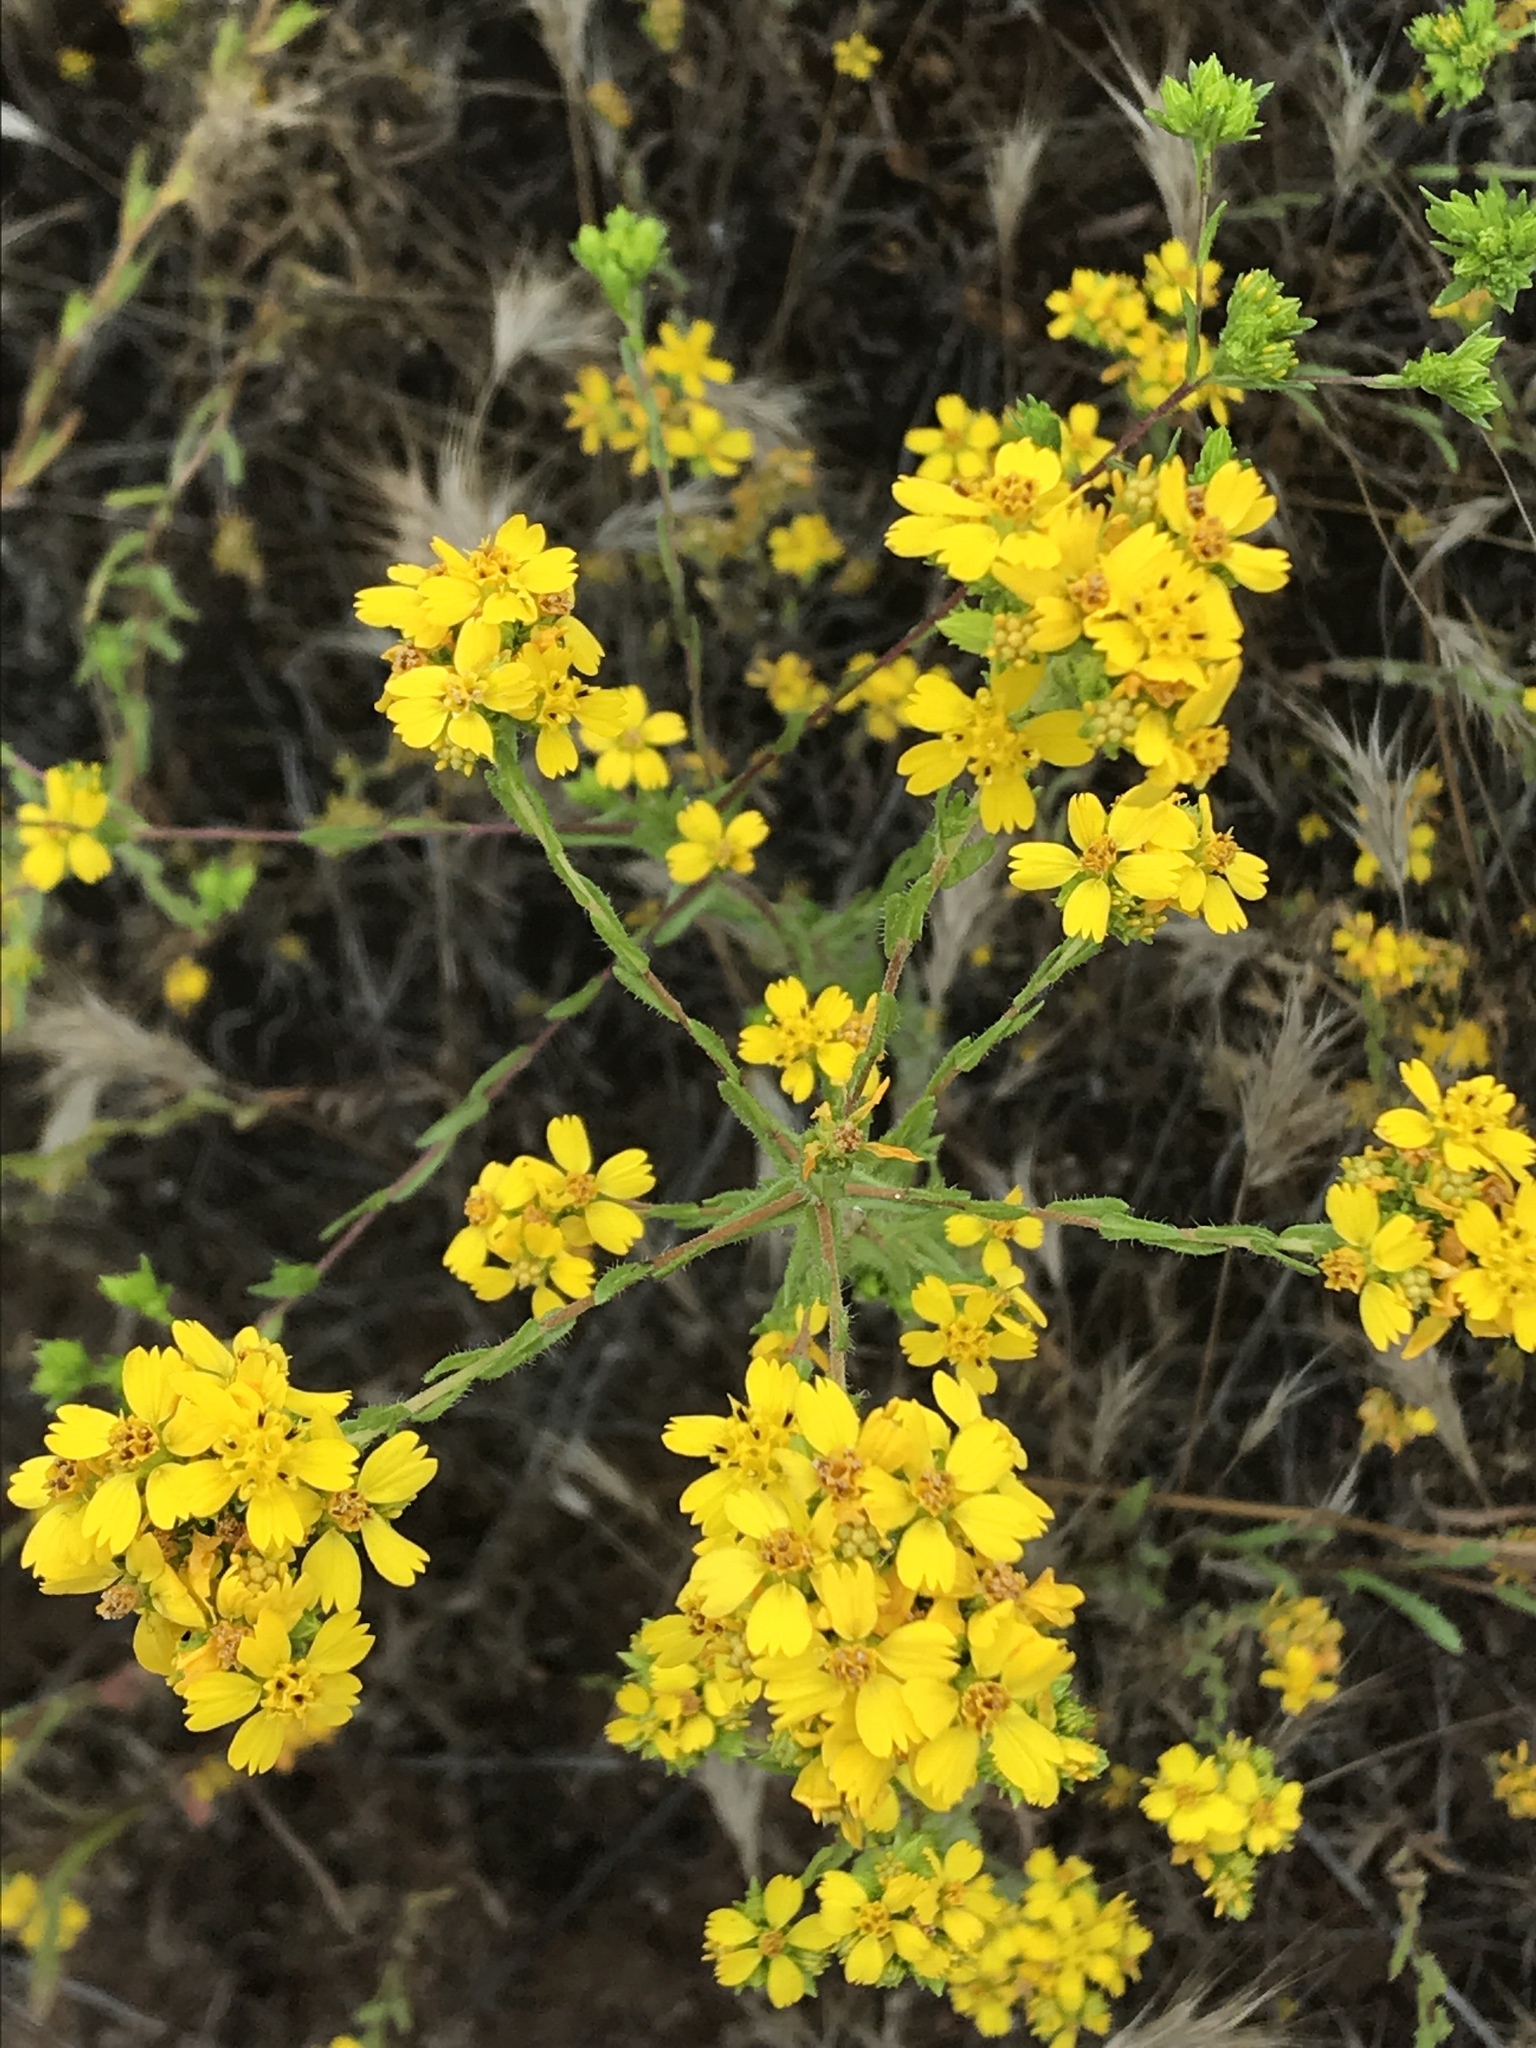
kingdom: Plantae
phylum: Tracheophyta
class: Magnoliopsida
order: Asterales
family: Asteraceae
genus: Deinandra
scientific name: Deinandra fasciculata
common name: Clustered tarweed
